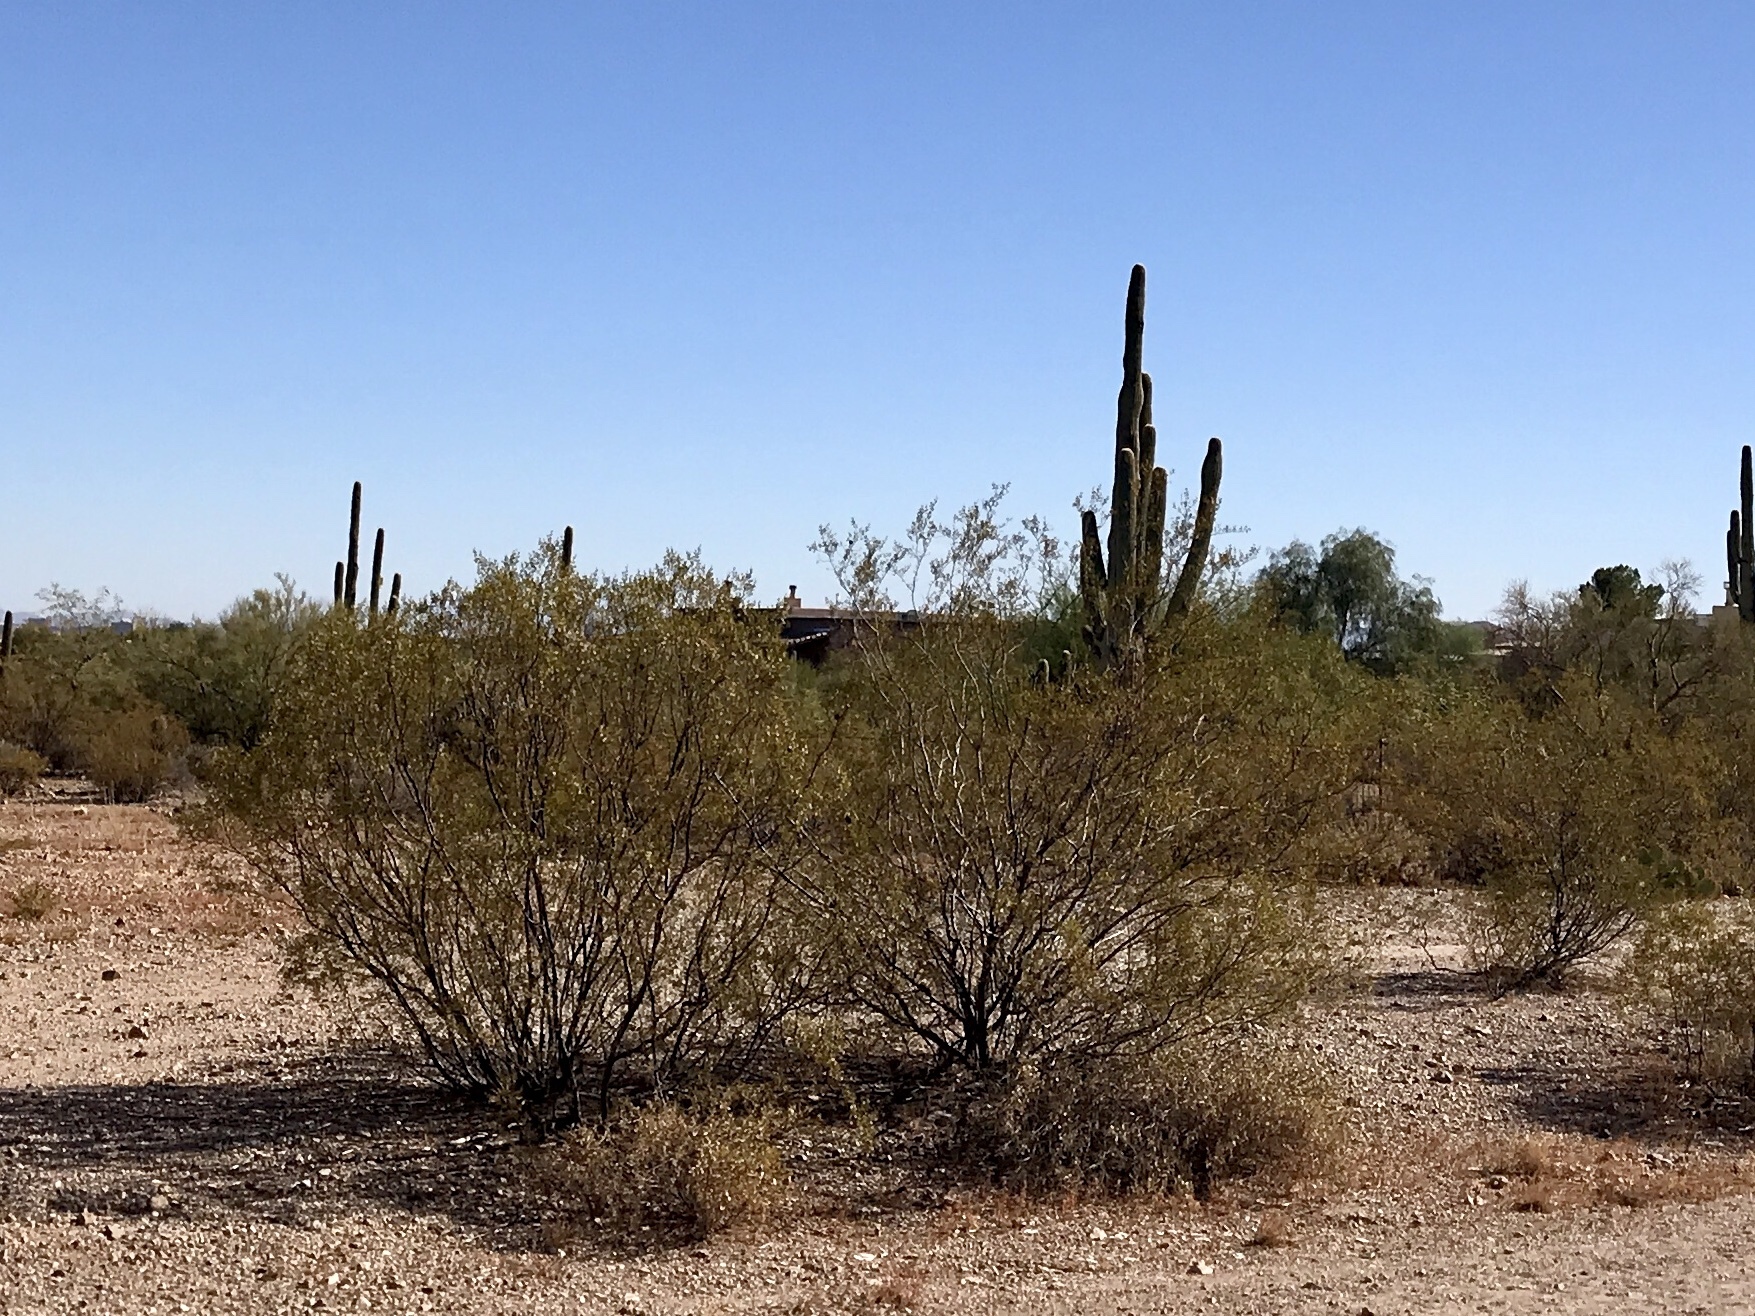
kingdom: Plantae
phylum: Tracheophyta
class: Magnoliopsida
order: Zygophyllales
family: Zygophyllaceae
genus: Larrea
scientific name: Larrea tridentata
